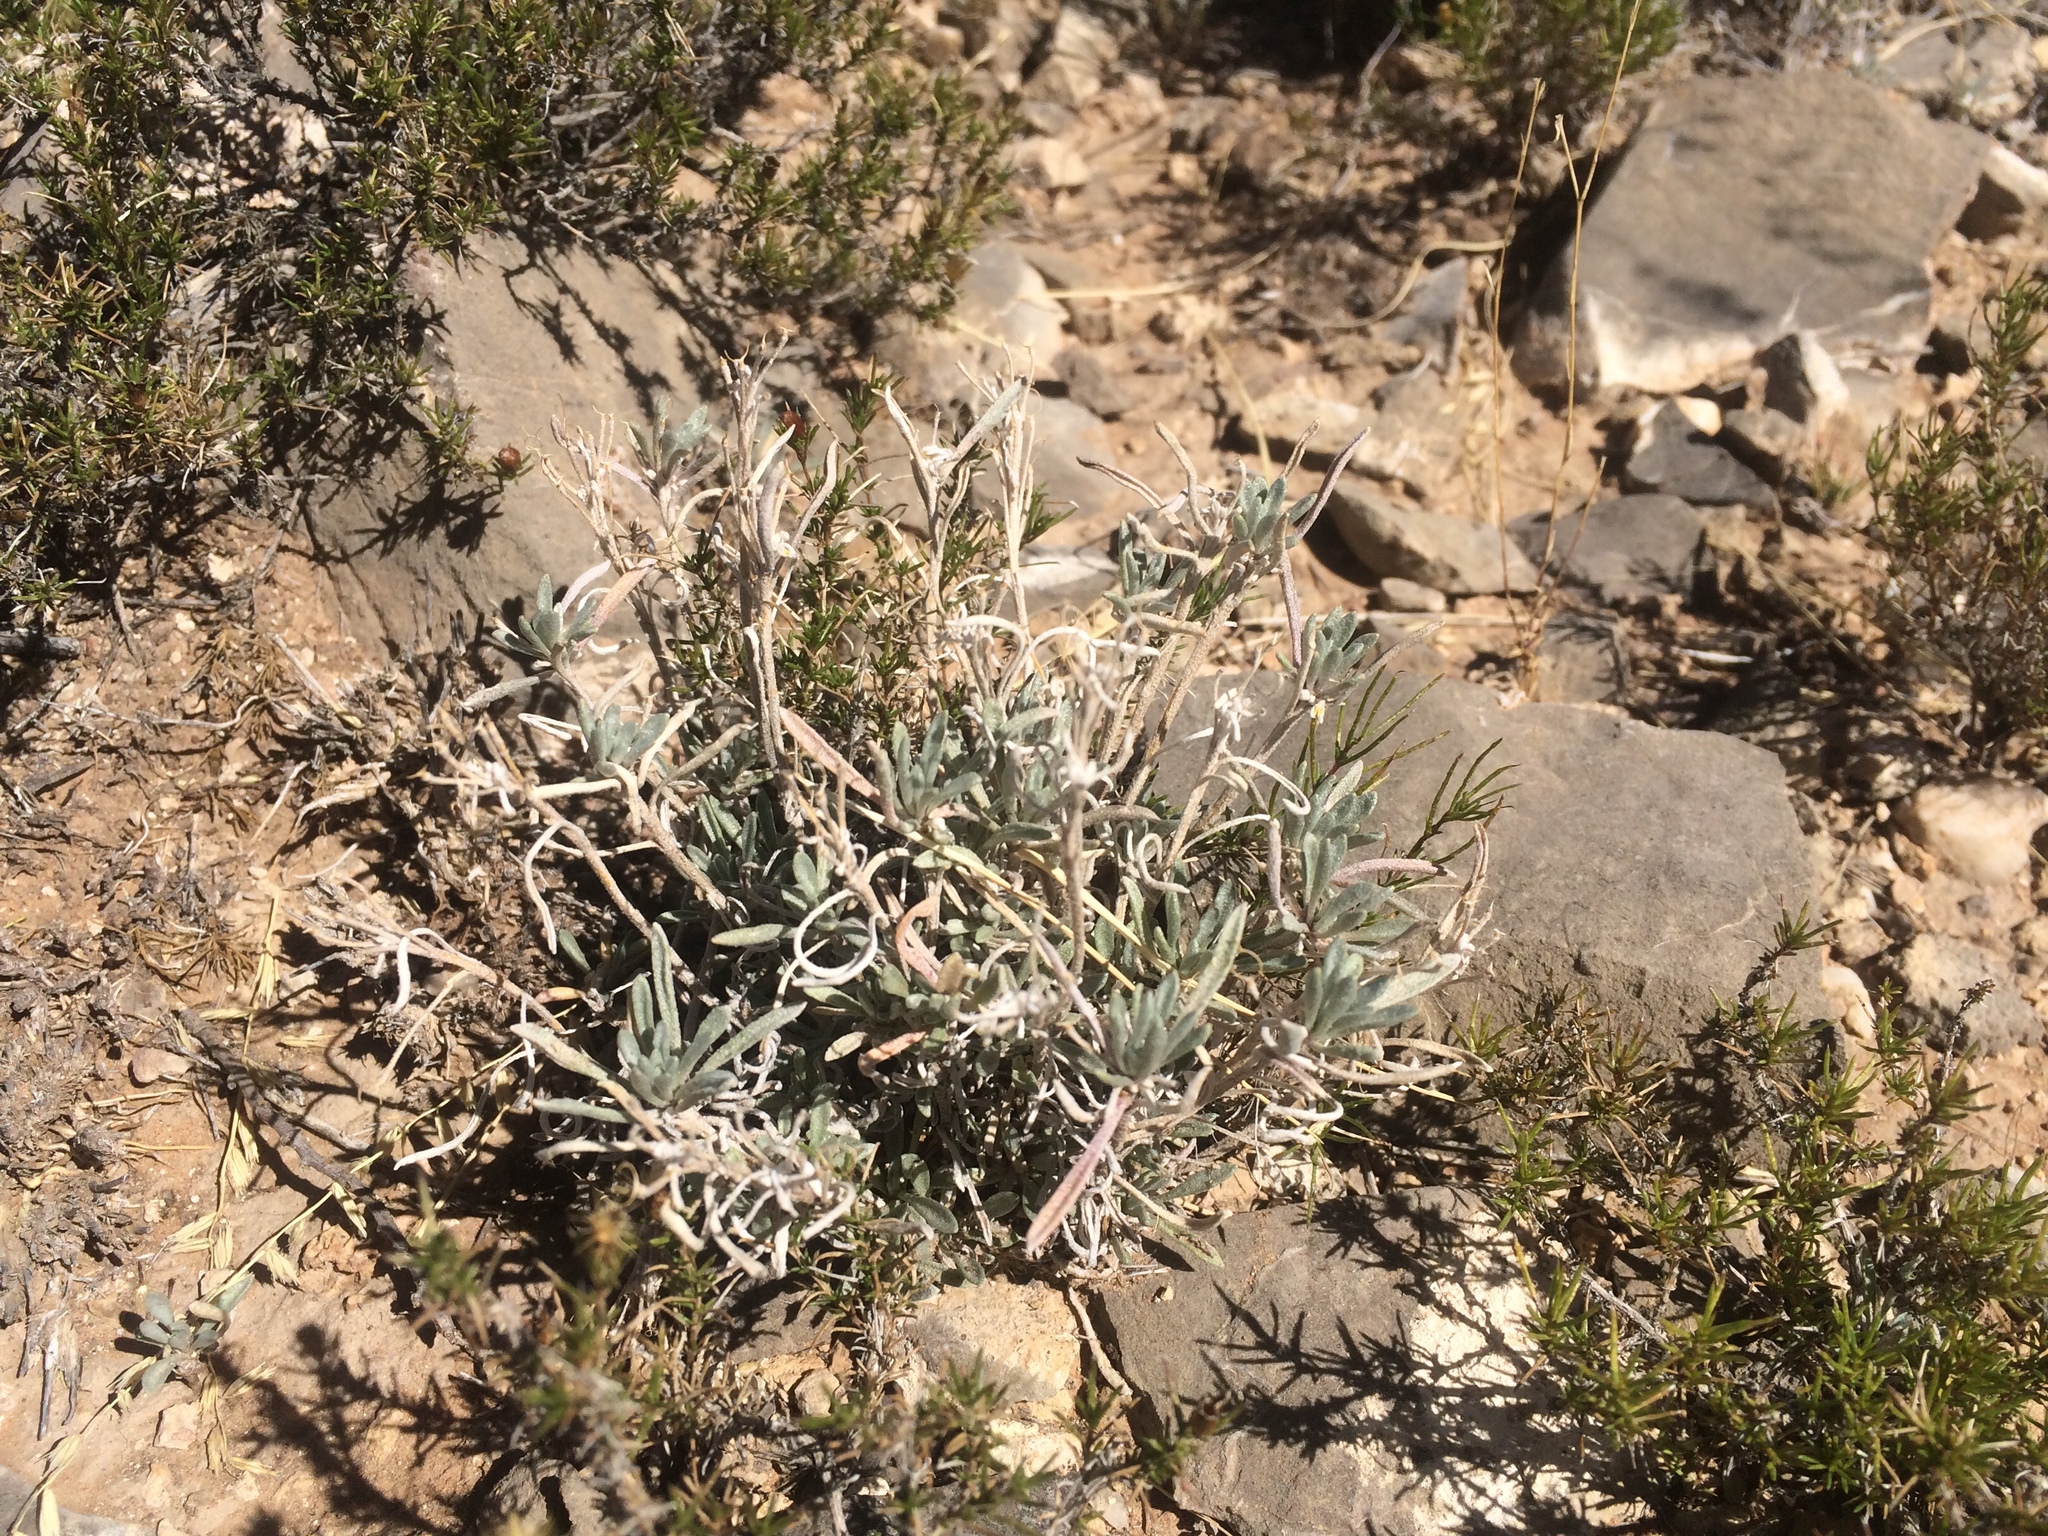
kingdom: Plantae
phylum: Tracheophyta
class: Magnoliopsida
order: Brassicales
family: Brassicaceae
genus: Physaria
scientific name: Physaria fendleri
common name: Fendler's bladderpod
